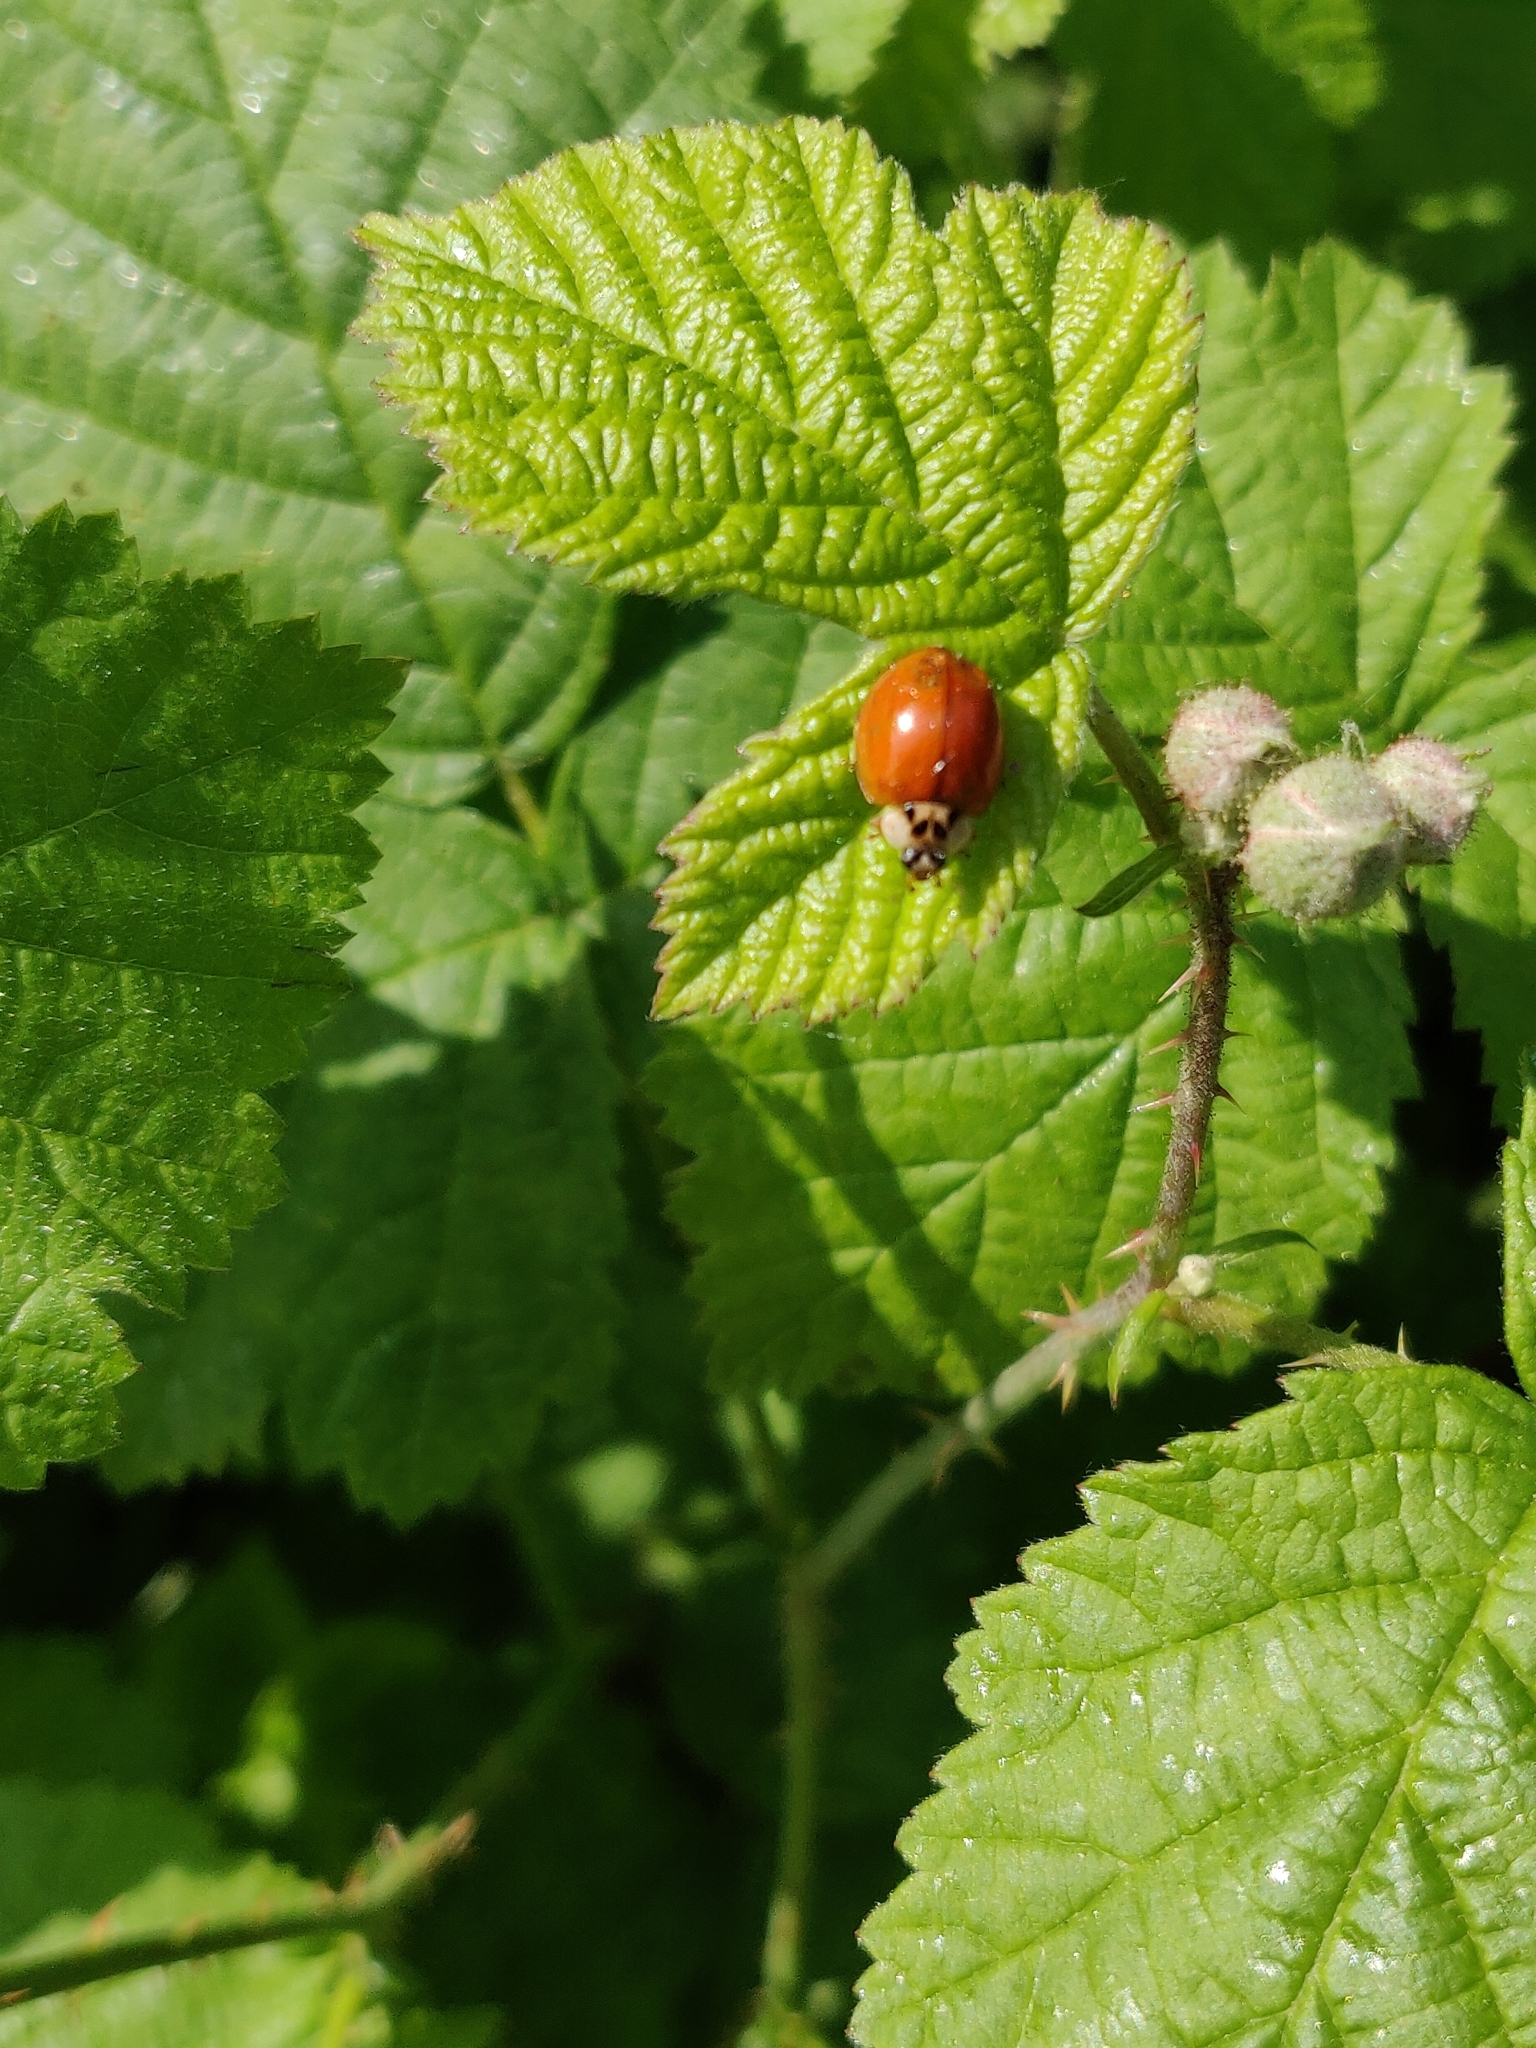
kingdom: Animalia
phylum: Arthropoda
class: Insecta
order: Coleoptera
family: Coccinellidae
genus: Harmonia
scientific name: Harmonia axyridis
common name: Harlequin ladybird
